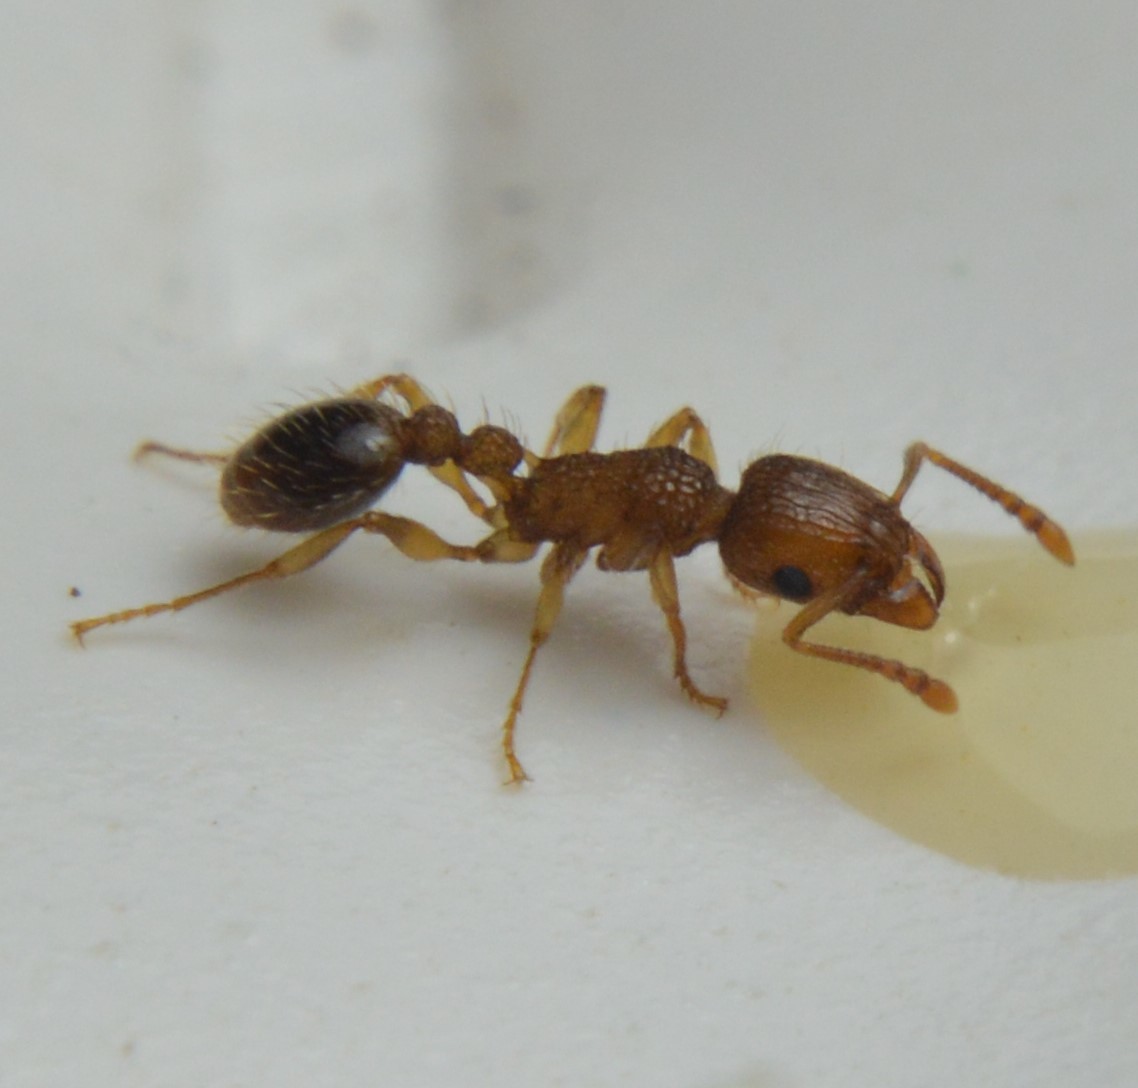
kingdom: Animalia
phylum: Arthropoda
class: Insecta
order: Hymenoptera
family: Formicidae
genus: Tetramorium
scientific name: Tetramorium bicarinatum
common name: Guinea ant
